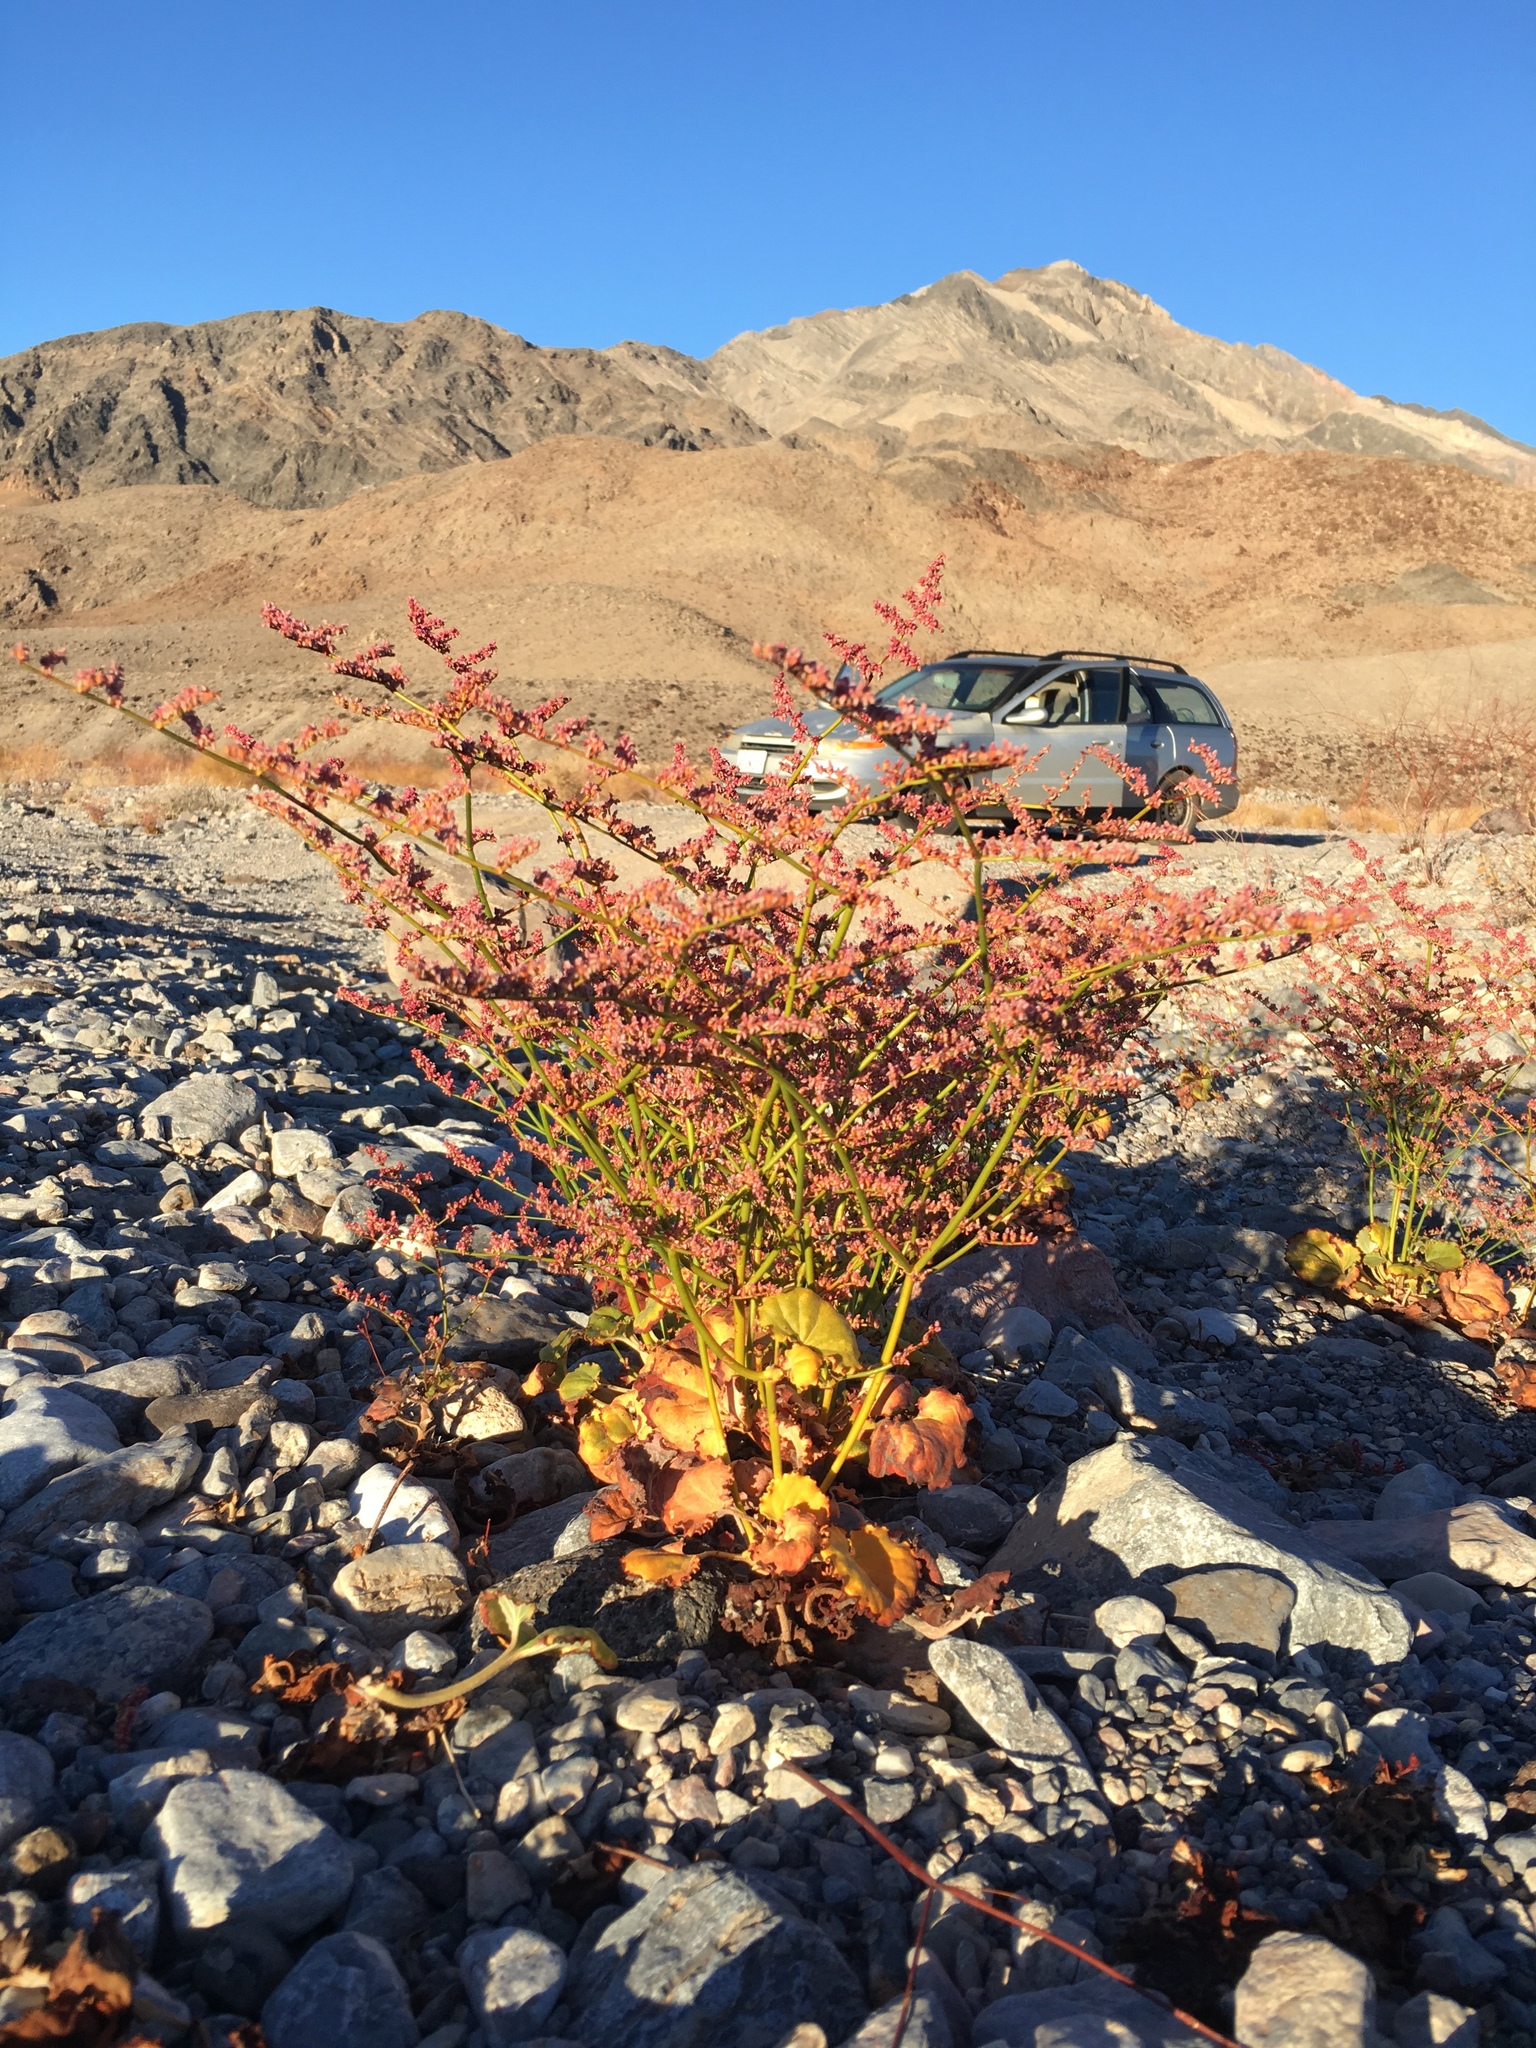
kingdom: Plantae
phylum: Tracheophyta
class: Magnoliopsida
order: Caryophyllales
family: Polygonaceae
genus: Eriogonum
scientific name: Eriogonum hoffmannii
